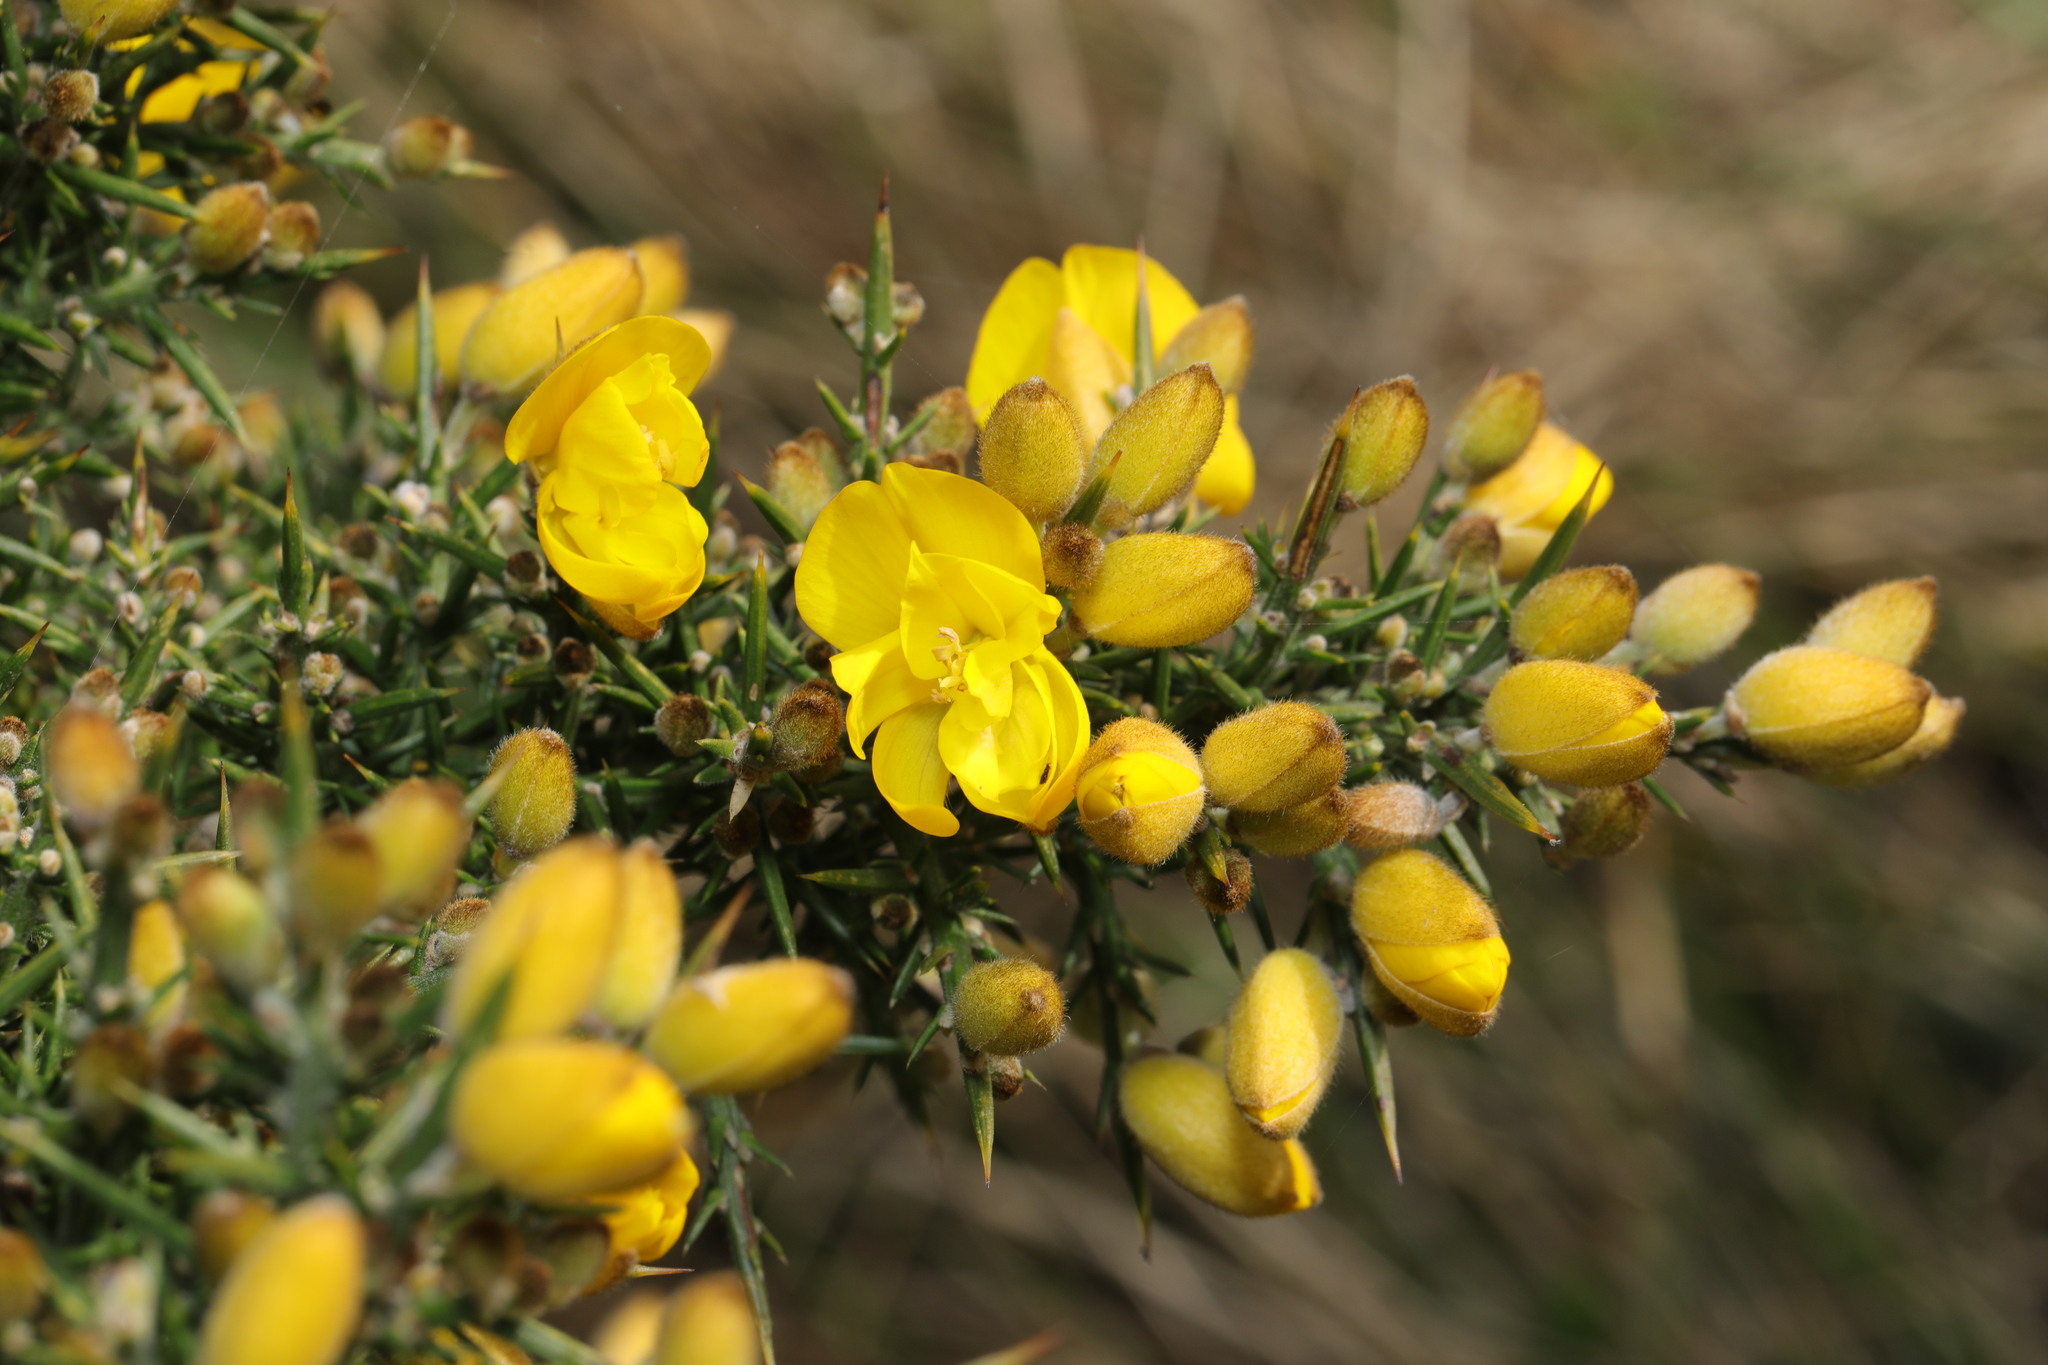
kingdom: Plantae
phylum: Tracheophyta
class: Magnoliopsida
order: Fabales
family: Fabaceae
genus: Ulex
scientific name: Ulex europaeus
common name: Common gorse
